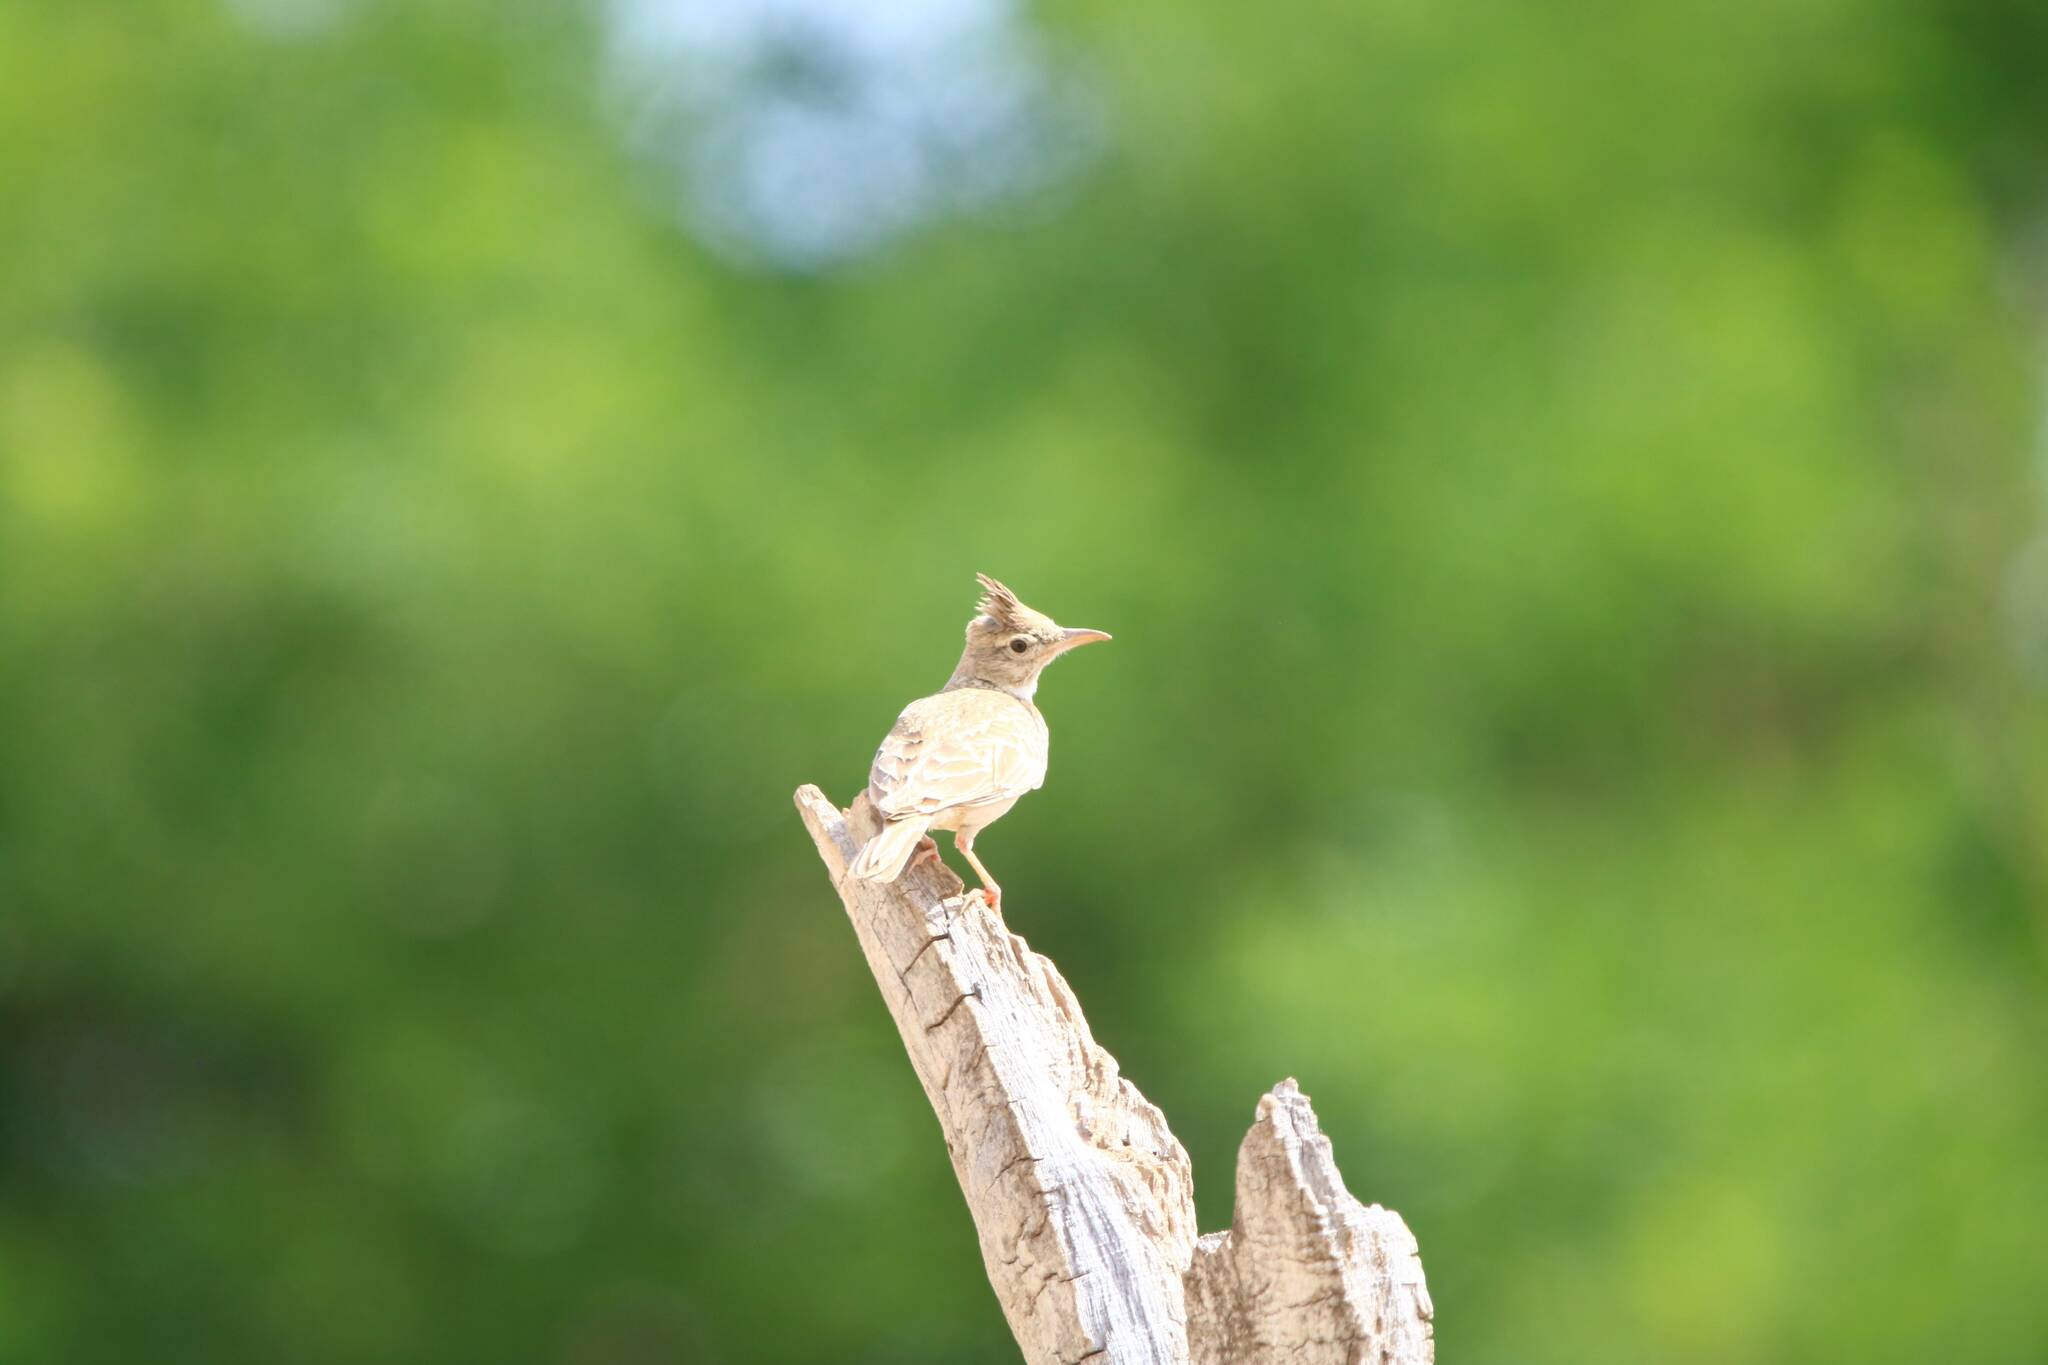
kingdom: Animalia
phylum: Chordata
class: Aves
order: Passeriformes
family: Alaudidae
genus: Galerida
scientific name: Galerida cristata
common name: Crested lark
